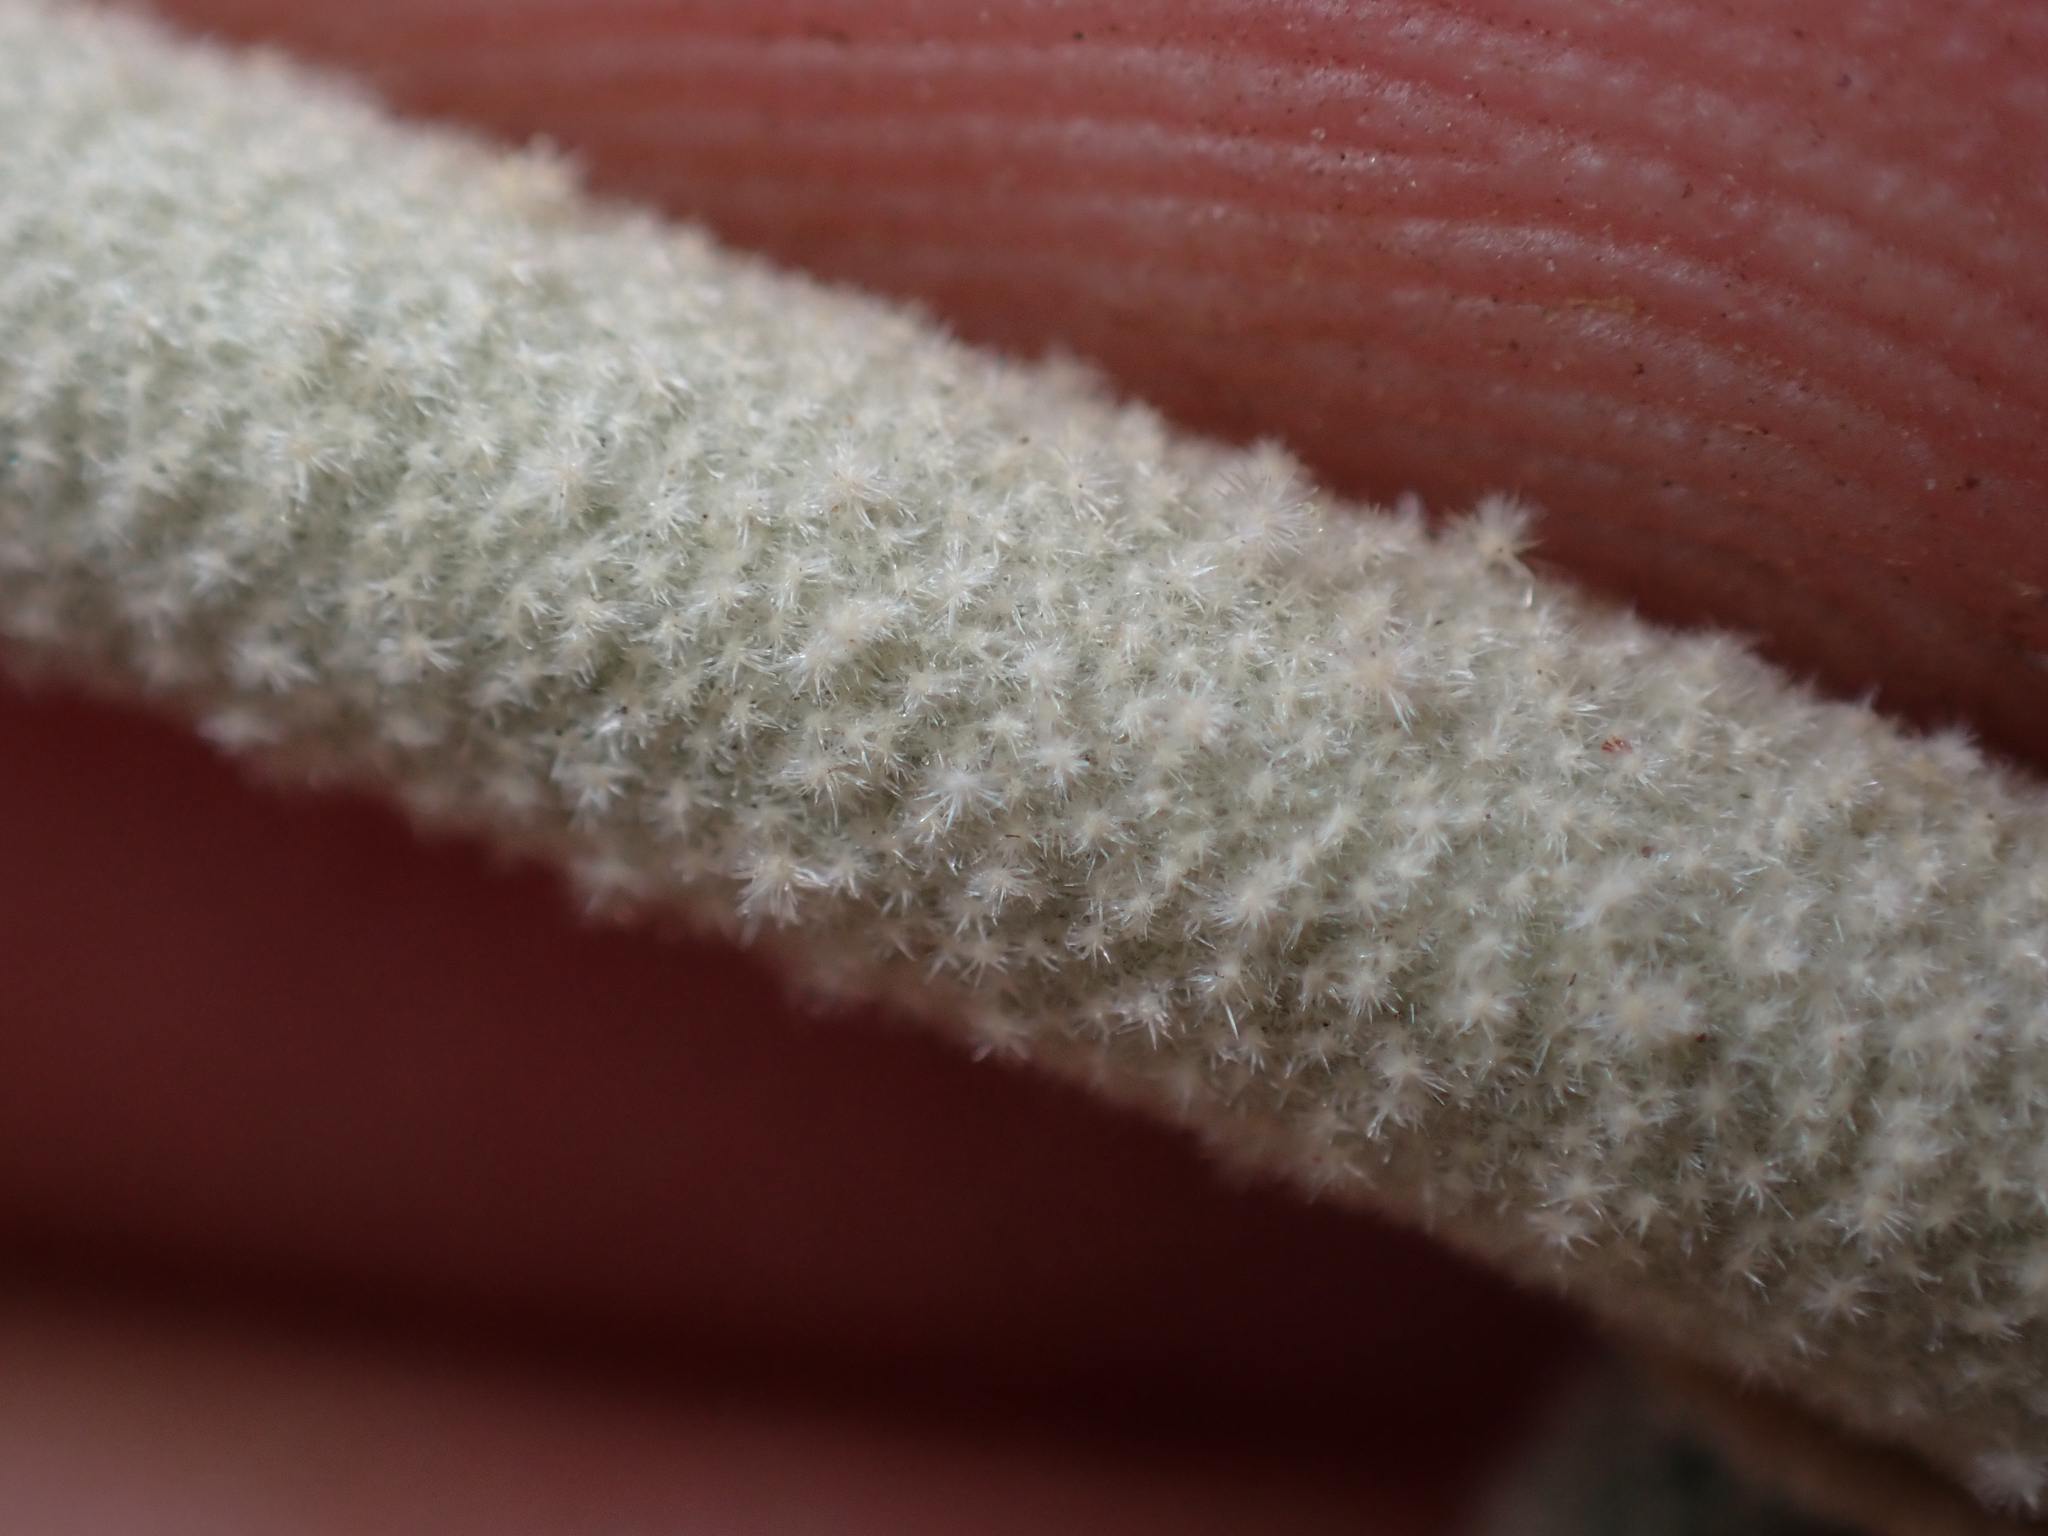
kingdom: Plantae
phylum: Tracheophyta
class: Magnoliopsida
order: Malvales
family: Malvaceae
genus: Malacothamnus
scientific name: Malacothamnus enigmaticus
